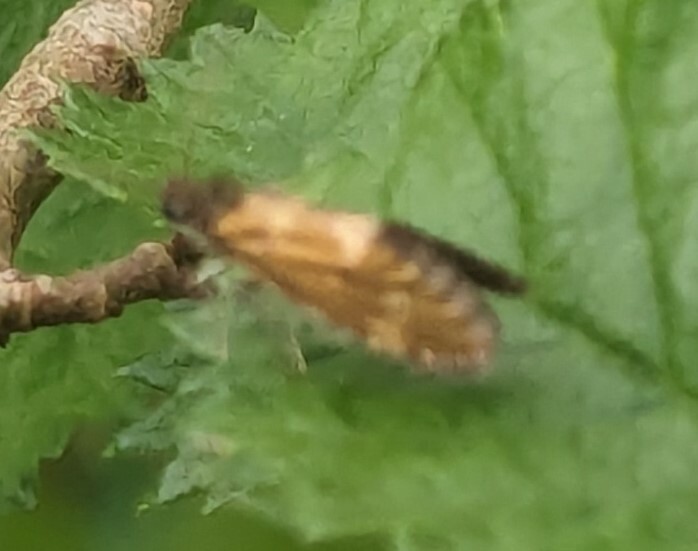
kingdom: Animalia
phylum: Arthropoda
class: Insecta
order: Lepidoptera
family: Eriocraniidae
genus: Dyseriocrania
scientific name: Dyseriocrania subpurpurella
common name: Common oak purple
